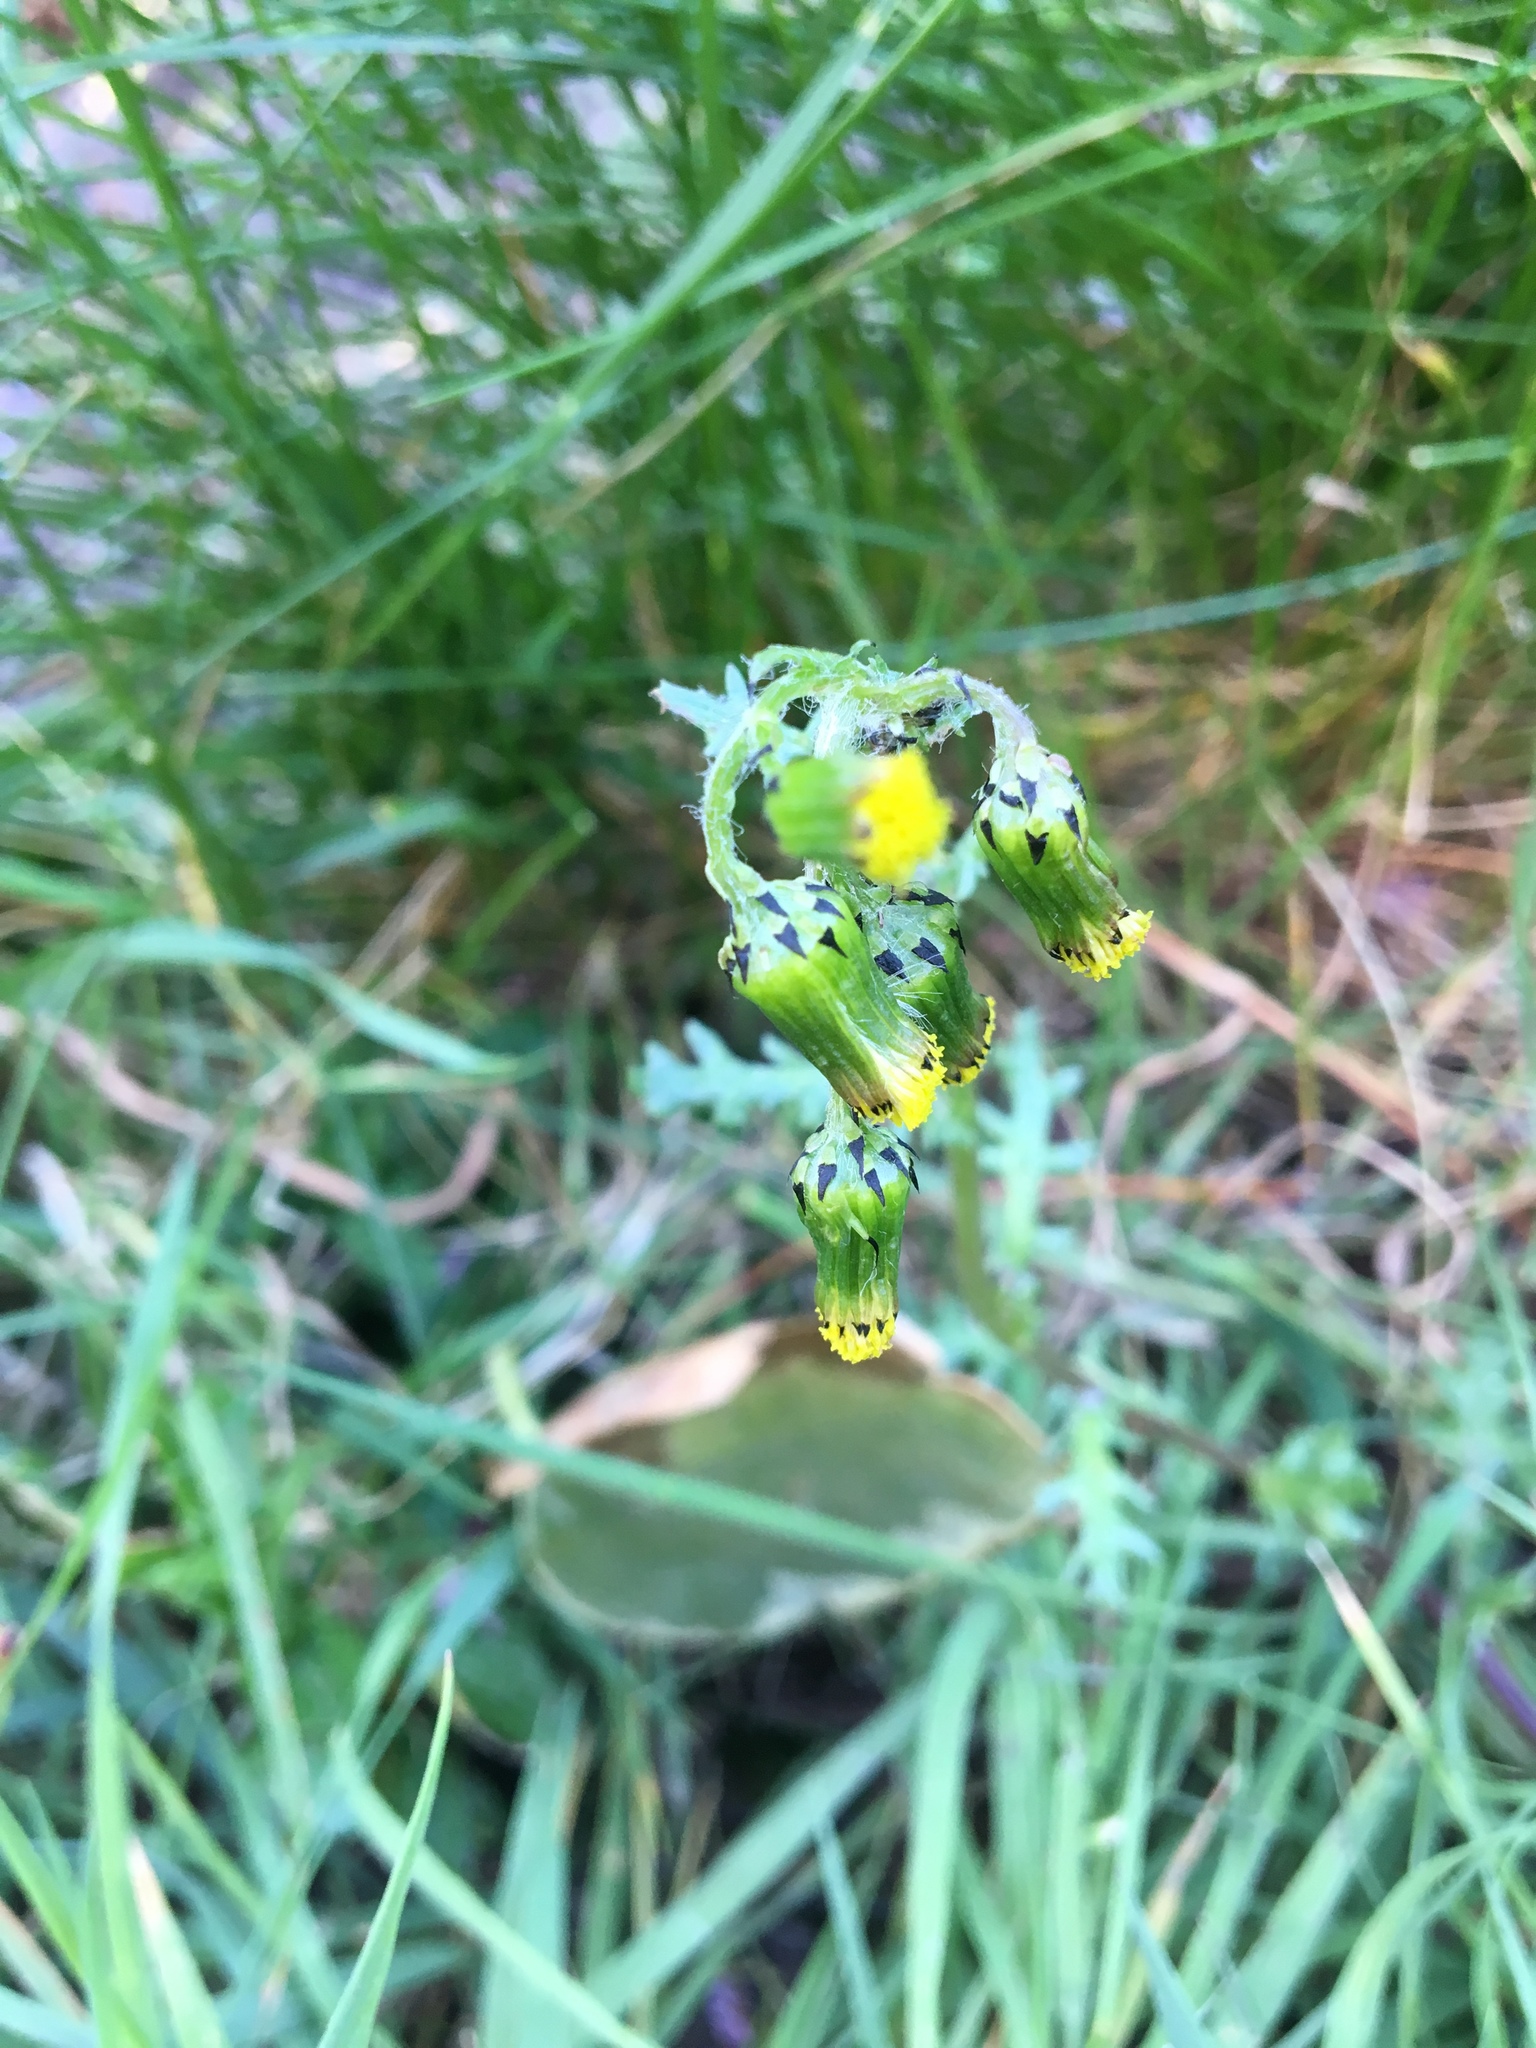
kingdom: Plantae
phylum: Tracheophyta
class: Magnoliopsida
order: Asterales
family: Asteraceae
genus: Senecio
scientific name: Senecio vulgaris
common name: Old-man-in-the-spring
